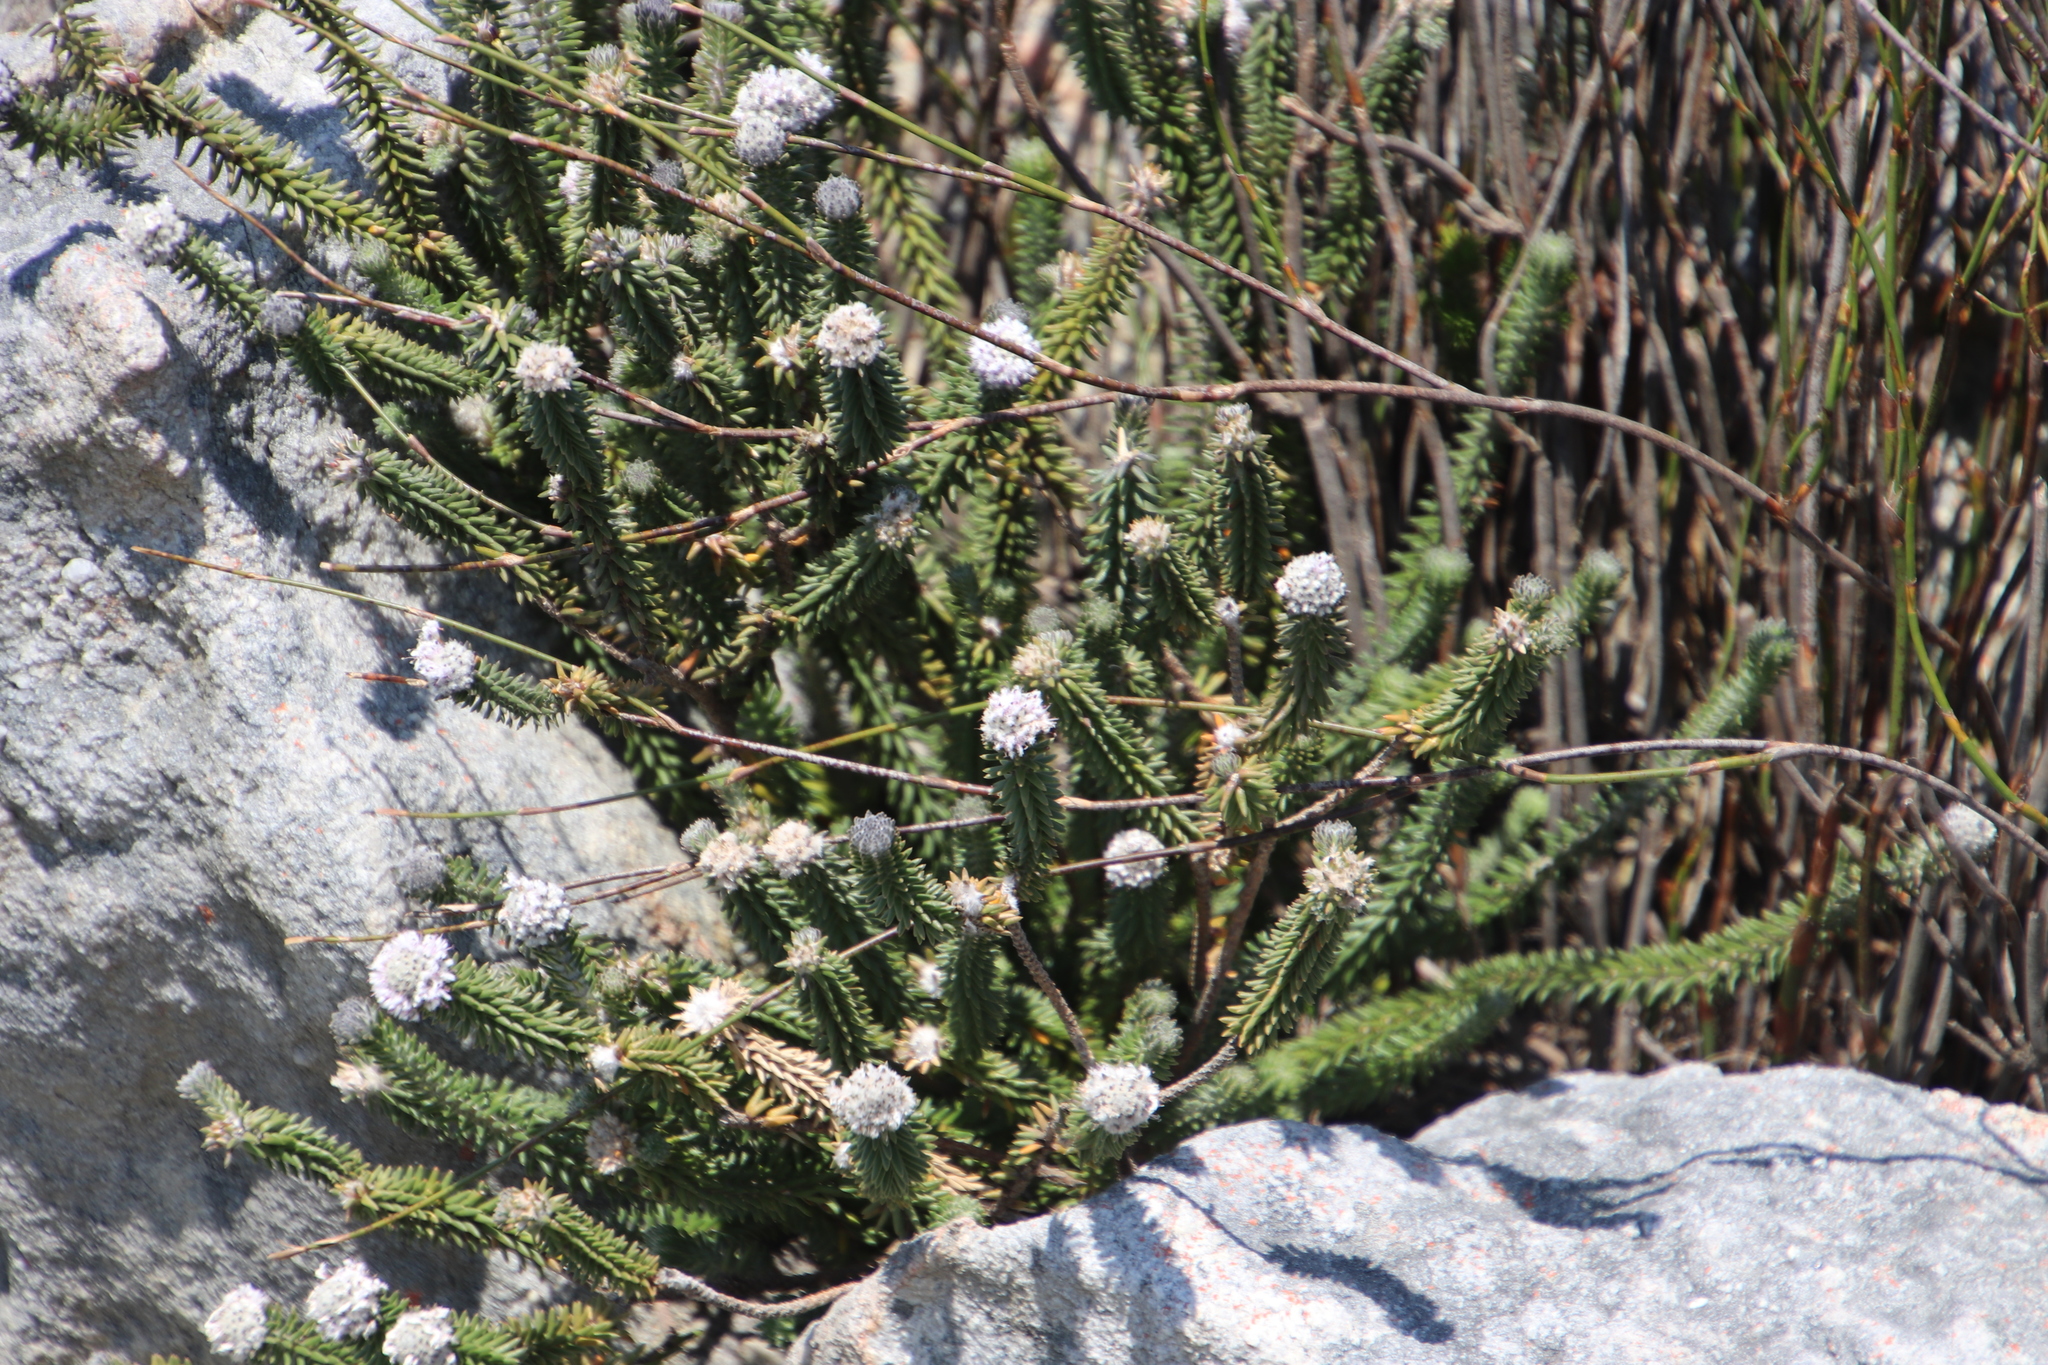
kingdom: Plantae
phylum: Tracheophyta
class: Magnoliopsida
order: Lamiales
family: Stilbaceae
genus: Kogelbergia
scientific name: Kogelbergia verticillata
